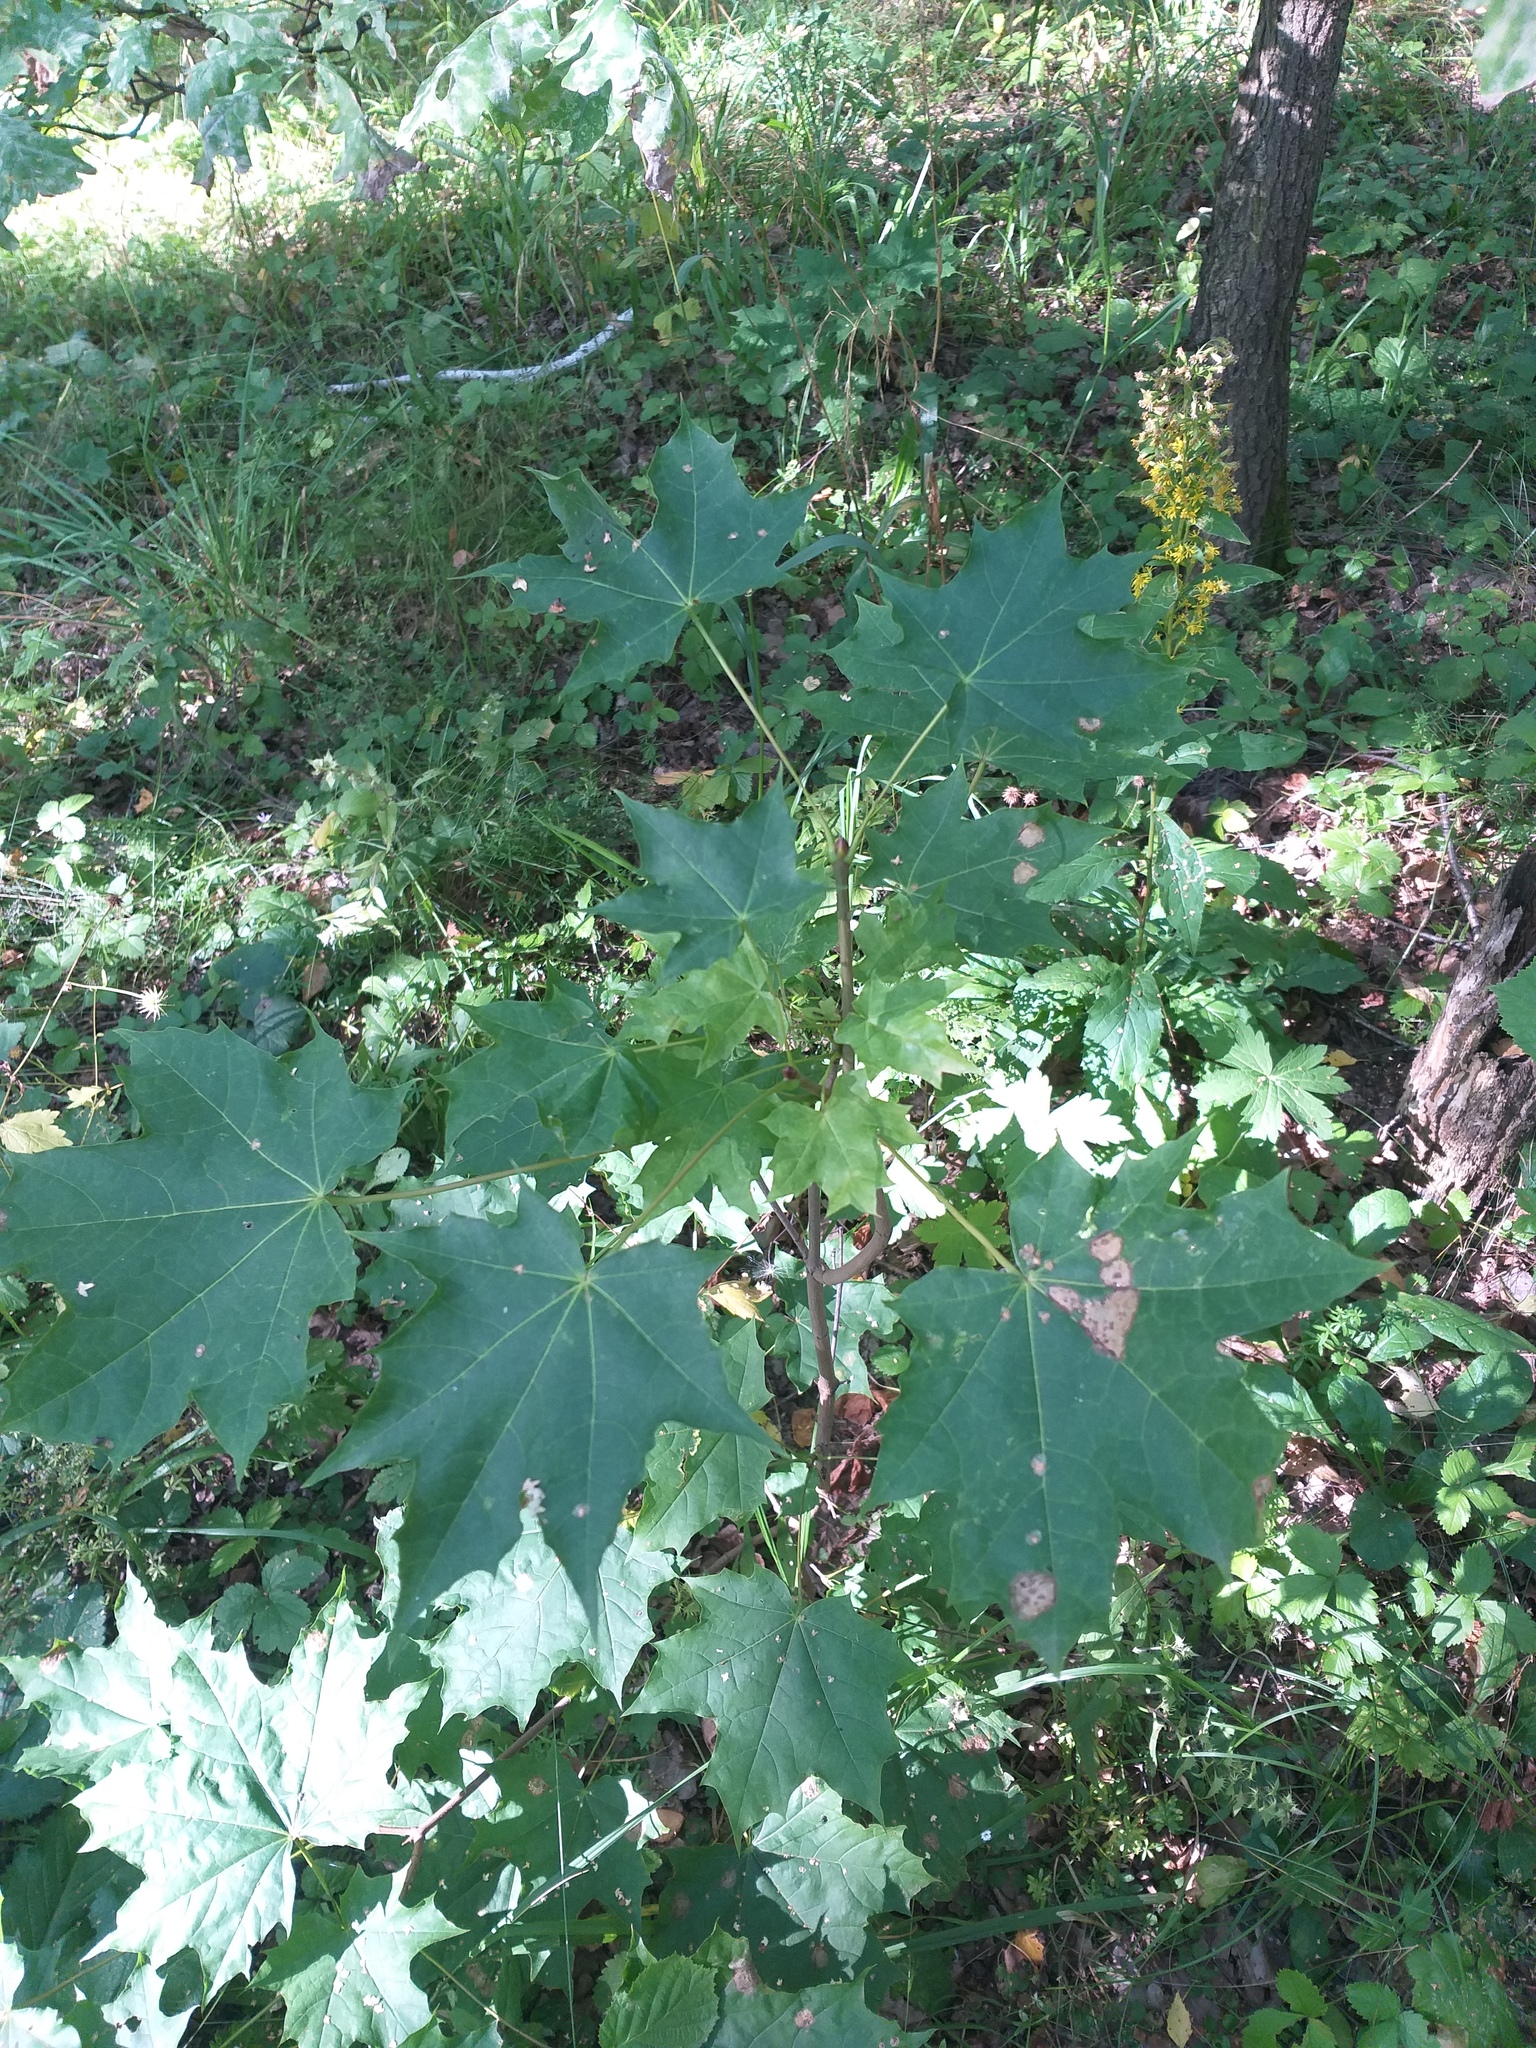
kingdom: Plantae
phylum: Tracheophyta
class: Magnoliopsida
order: Sapindales
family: Sapindaceae
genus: Acer
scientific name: Acer platanoides
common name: Norway maple
